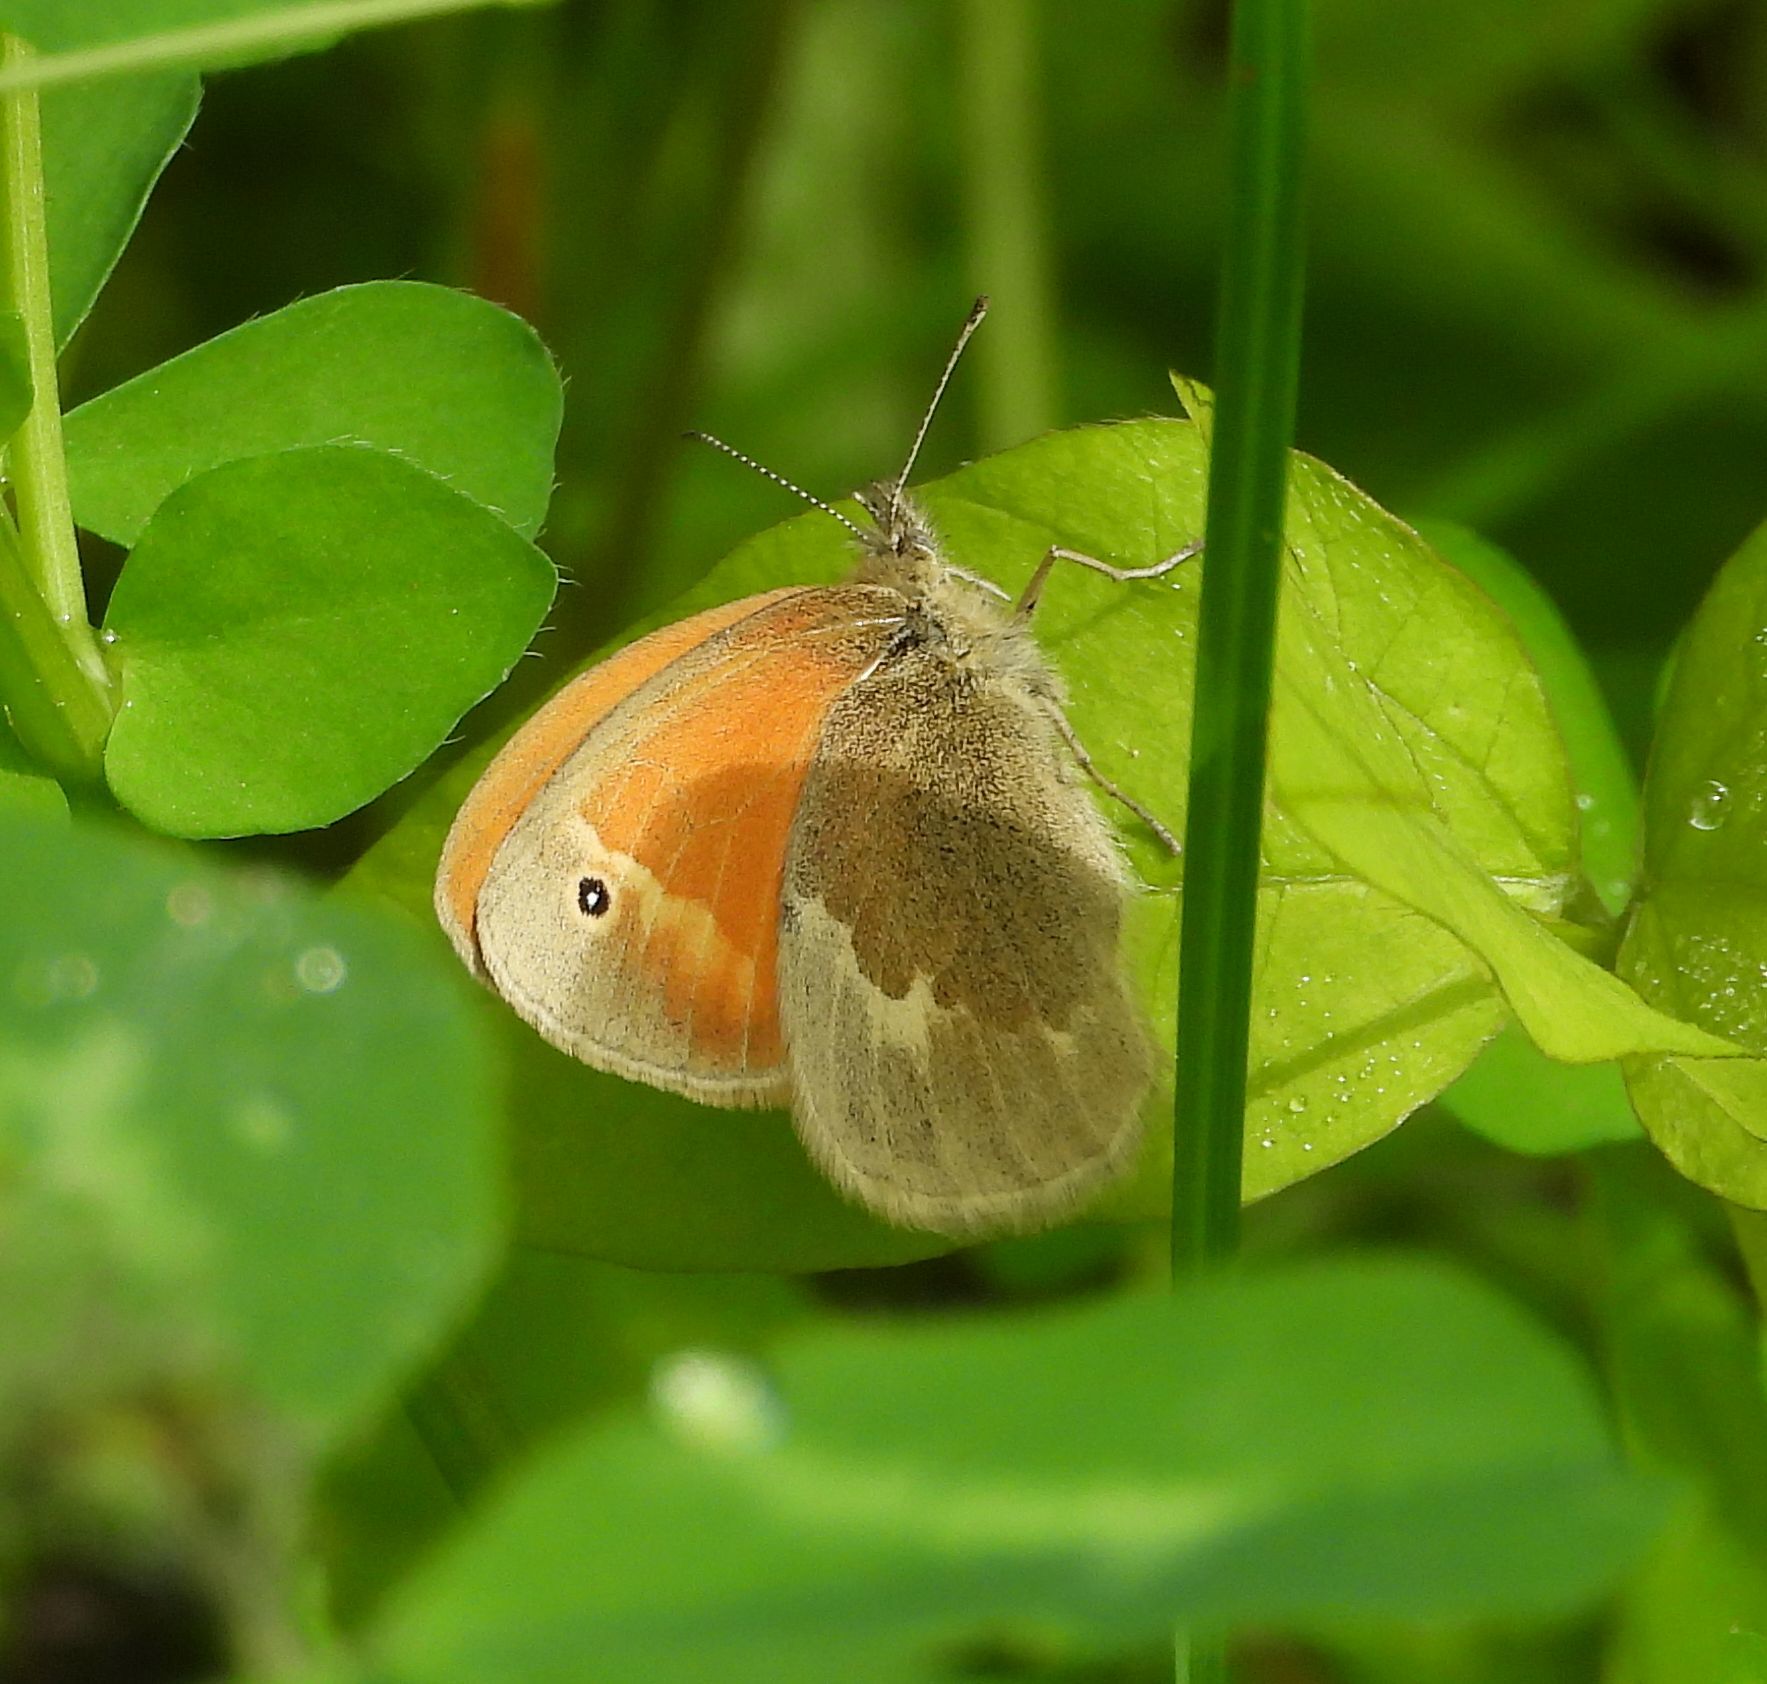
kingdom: Animalia
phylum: Arthropoda
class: Insecta
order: Lepidoptera
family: Nymphalidae
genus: Coenonympha
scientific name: Coenonympha california
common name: Common ringlet
